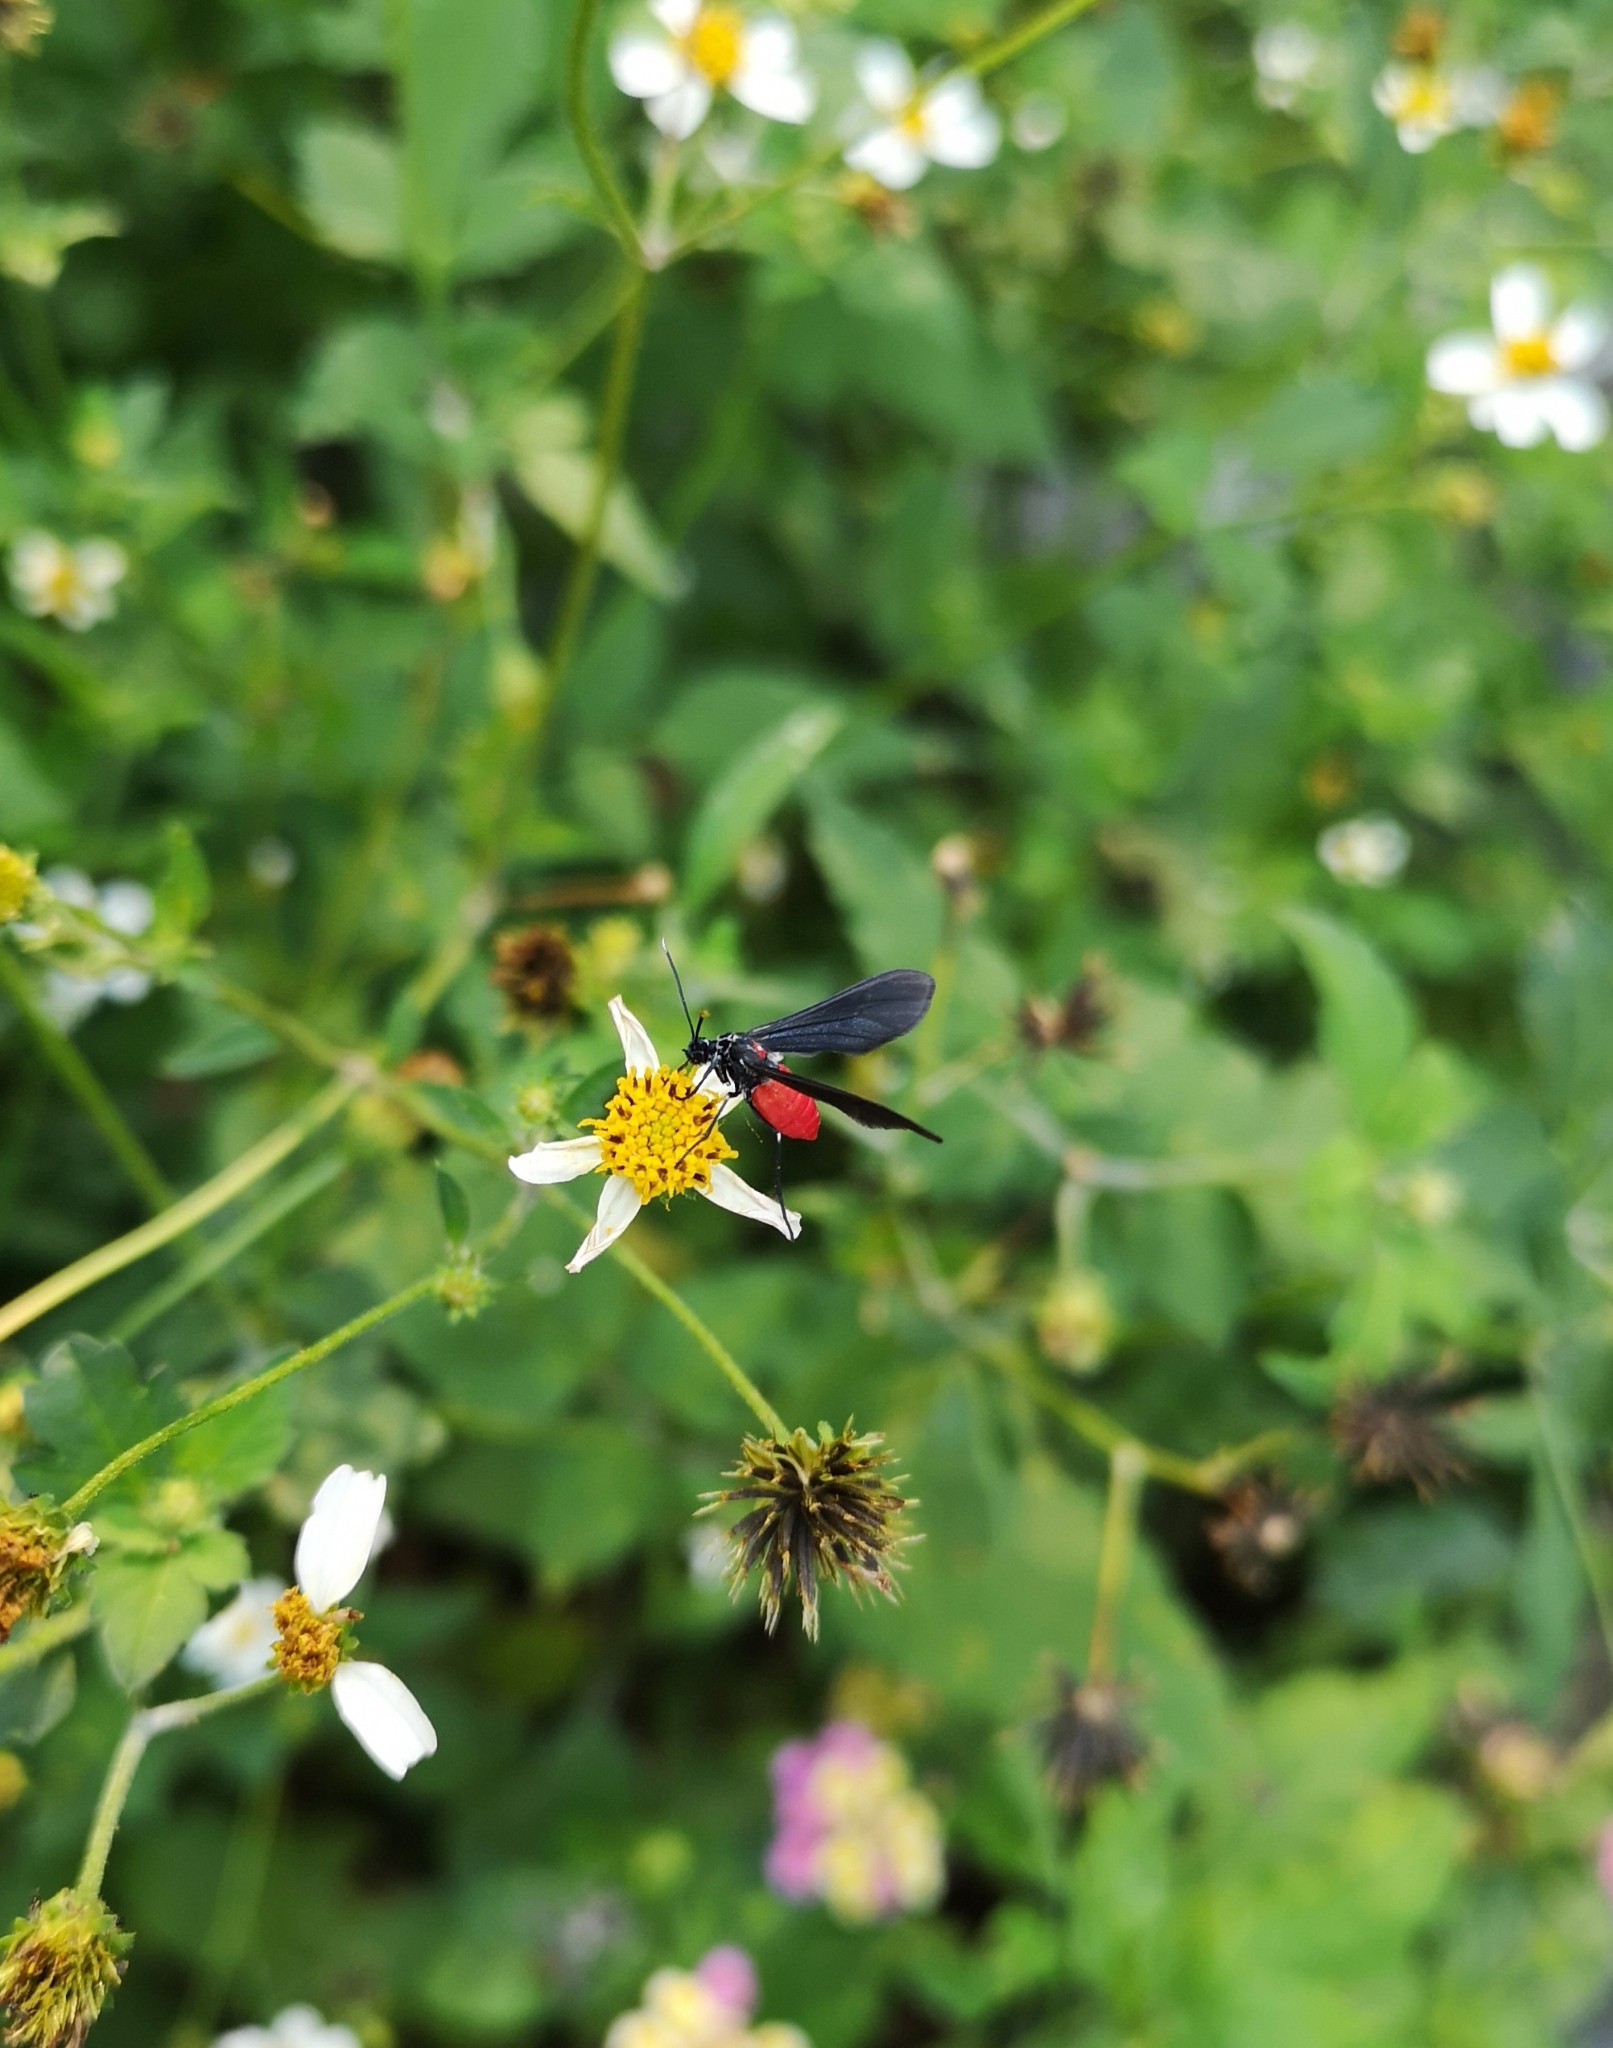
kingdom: Animalia
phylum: Arthropoda
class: Insecta
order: Lepidoptera
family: Erebidae
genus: Saurita
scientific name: Saurita mecrida
